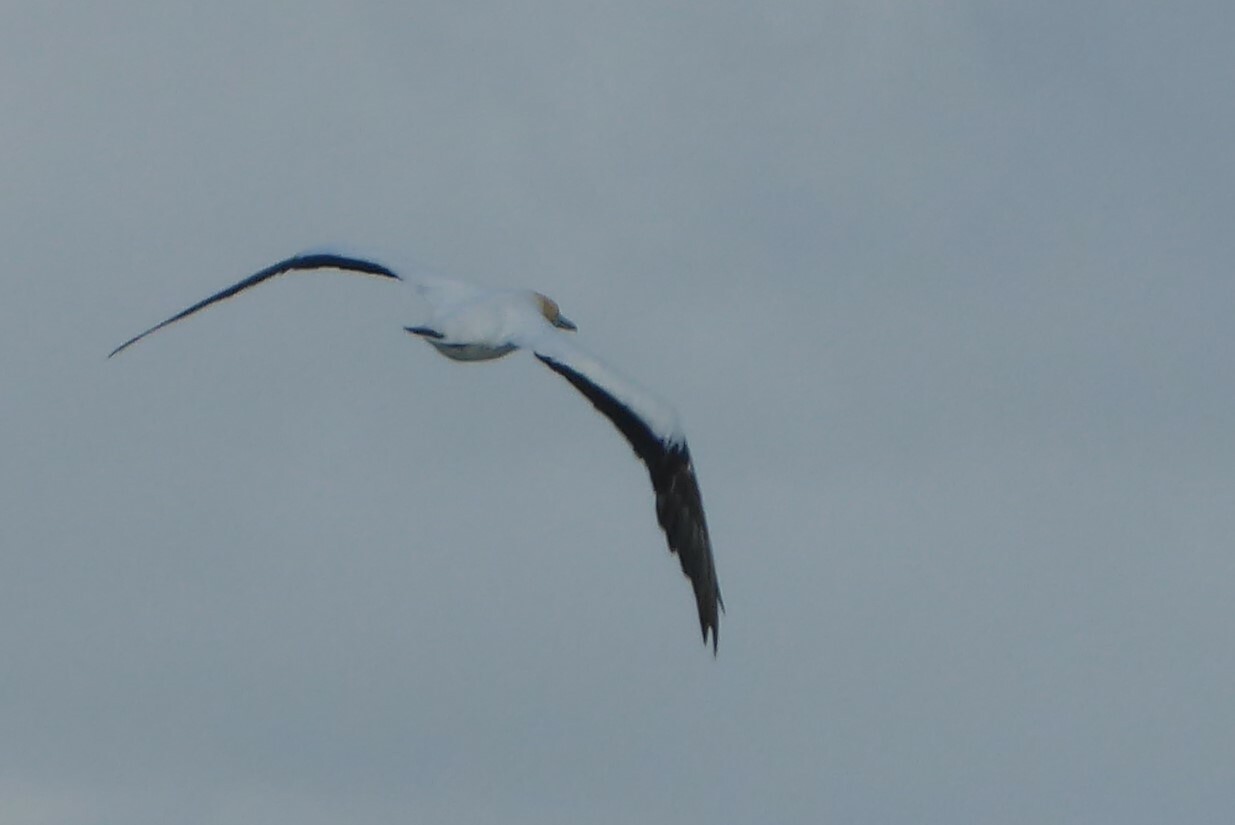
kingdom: Animalia
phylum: Chordata
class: Aves
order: Suliformes
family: Sulidae
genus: Morus
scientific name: Morus serrator
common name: Australasian gannet
